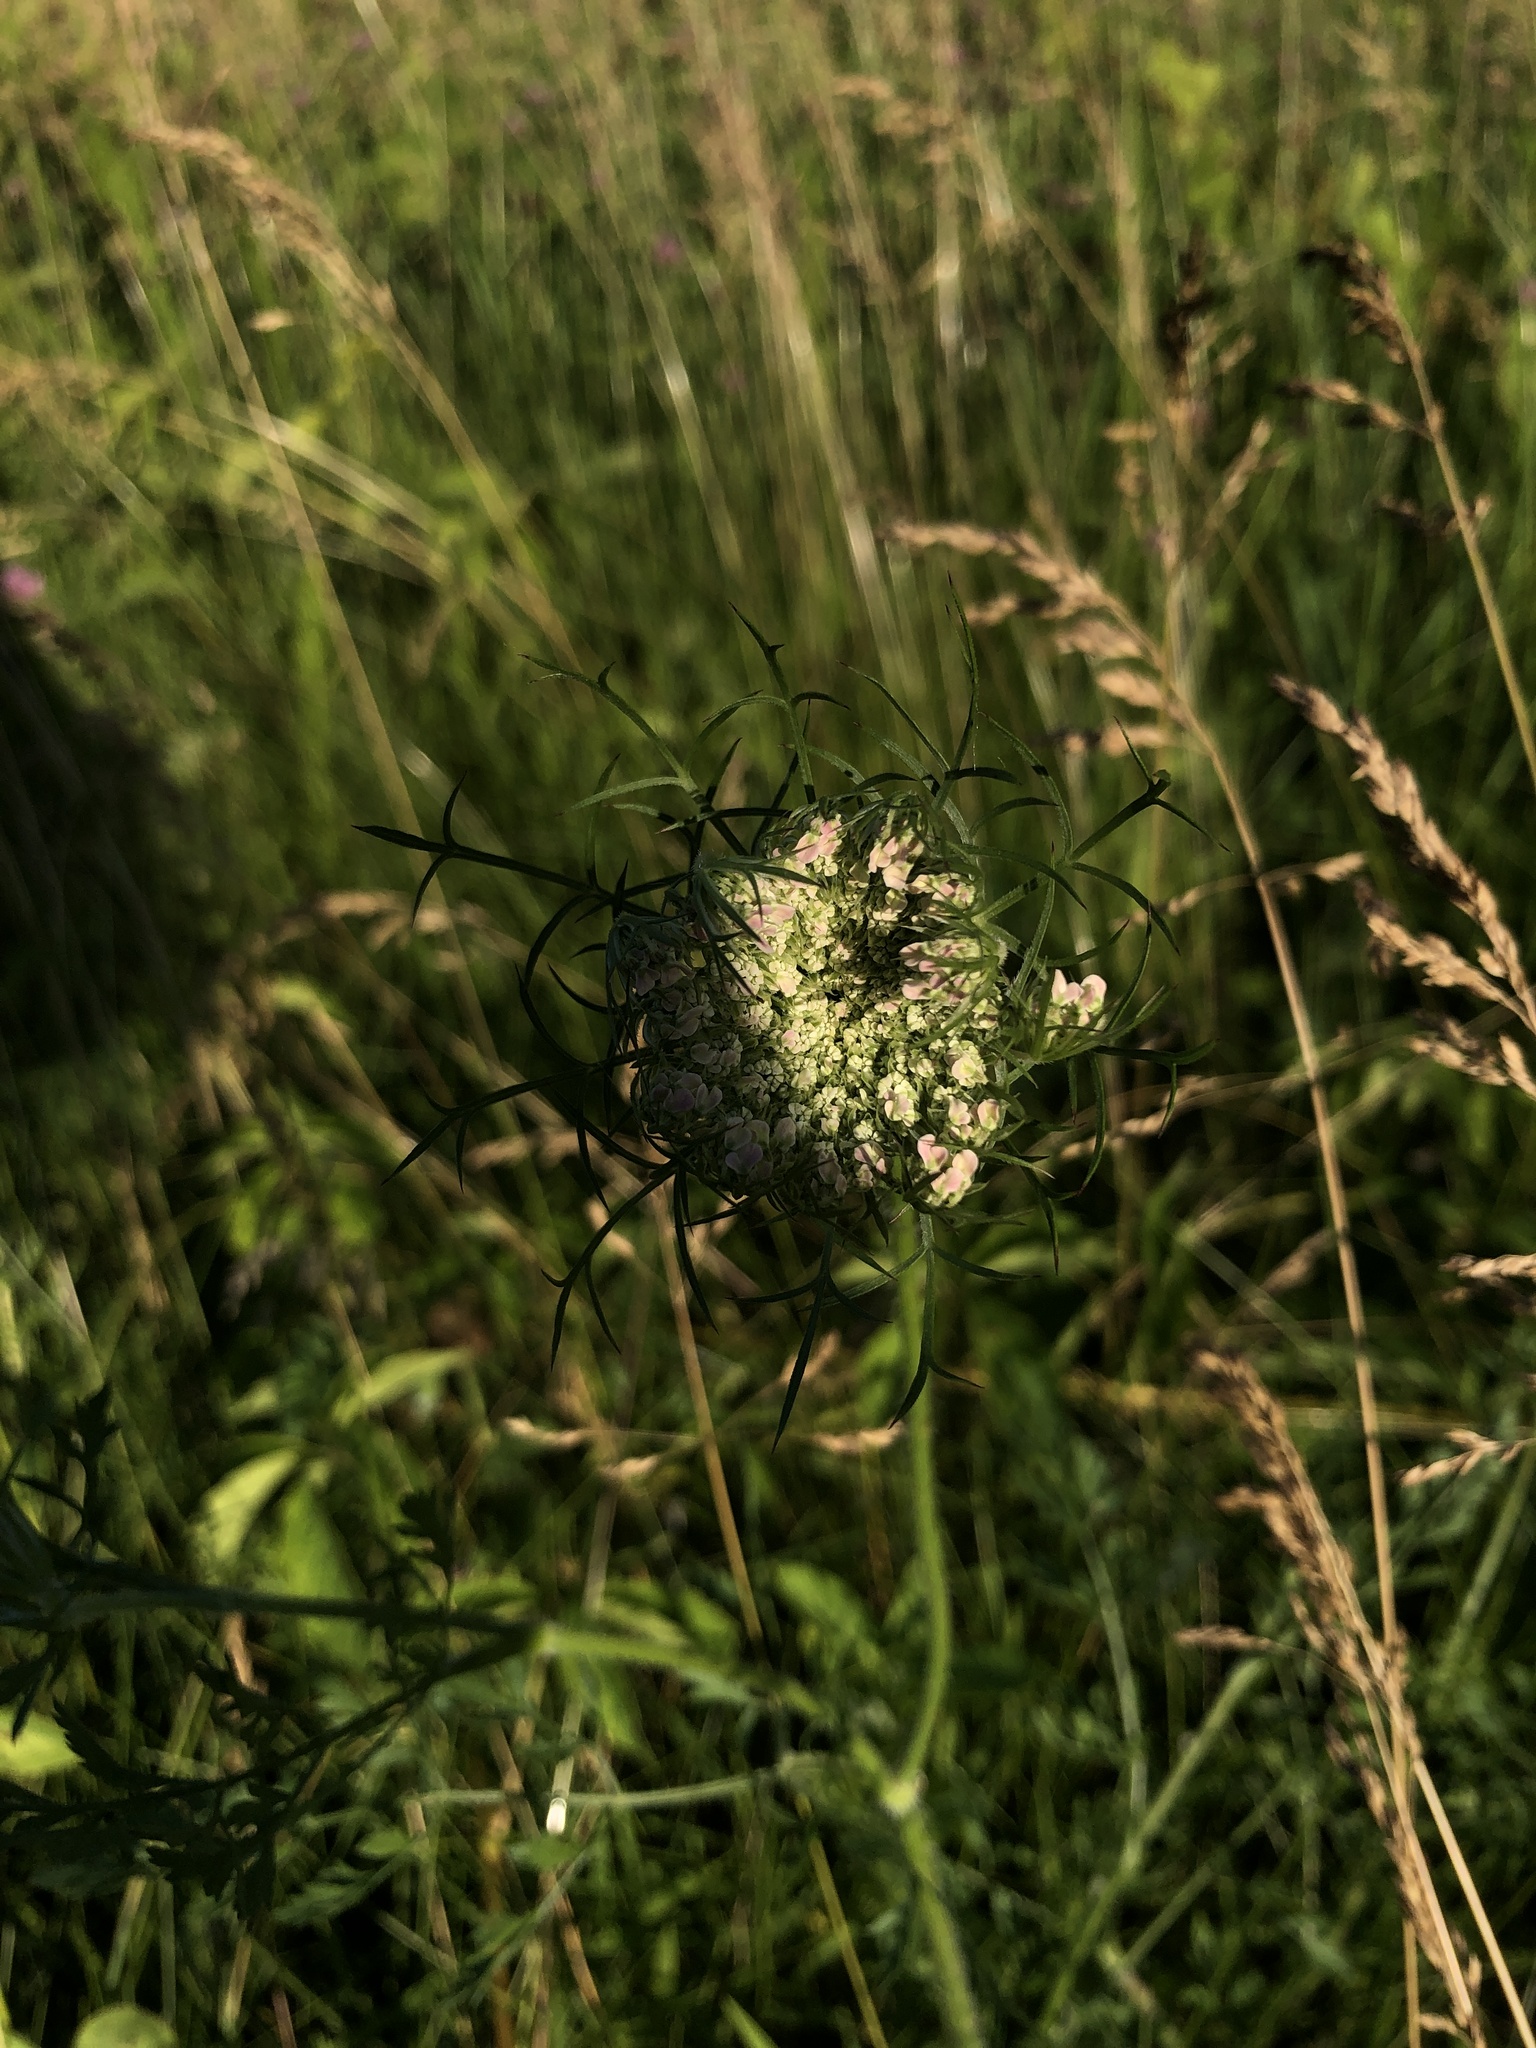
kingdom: Plantae
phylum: Tracheophyta
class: Magnoliopsida
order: Apiales
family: Apiaceae
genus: Daucus
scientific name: Daucus carota
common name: Wild carrot
